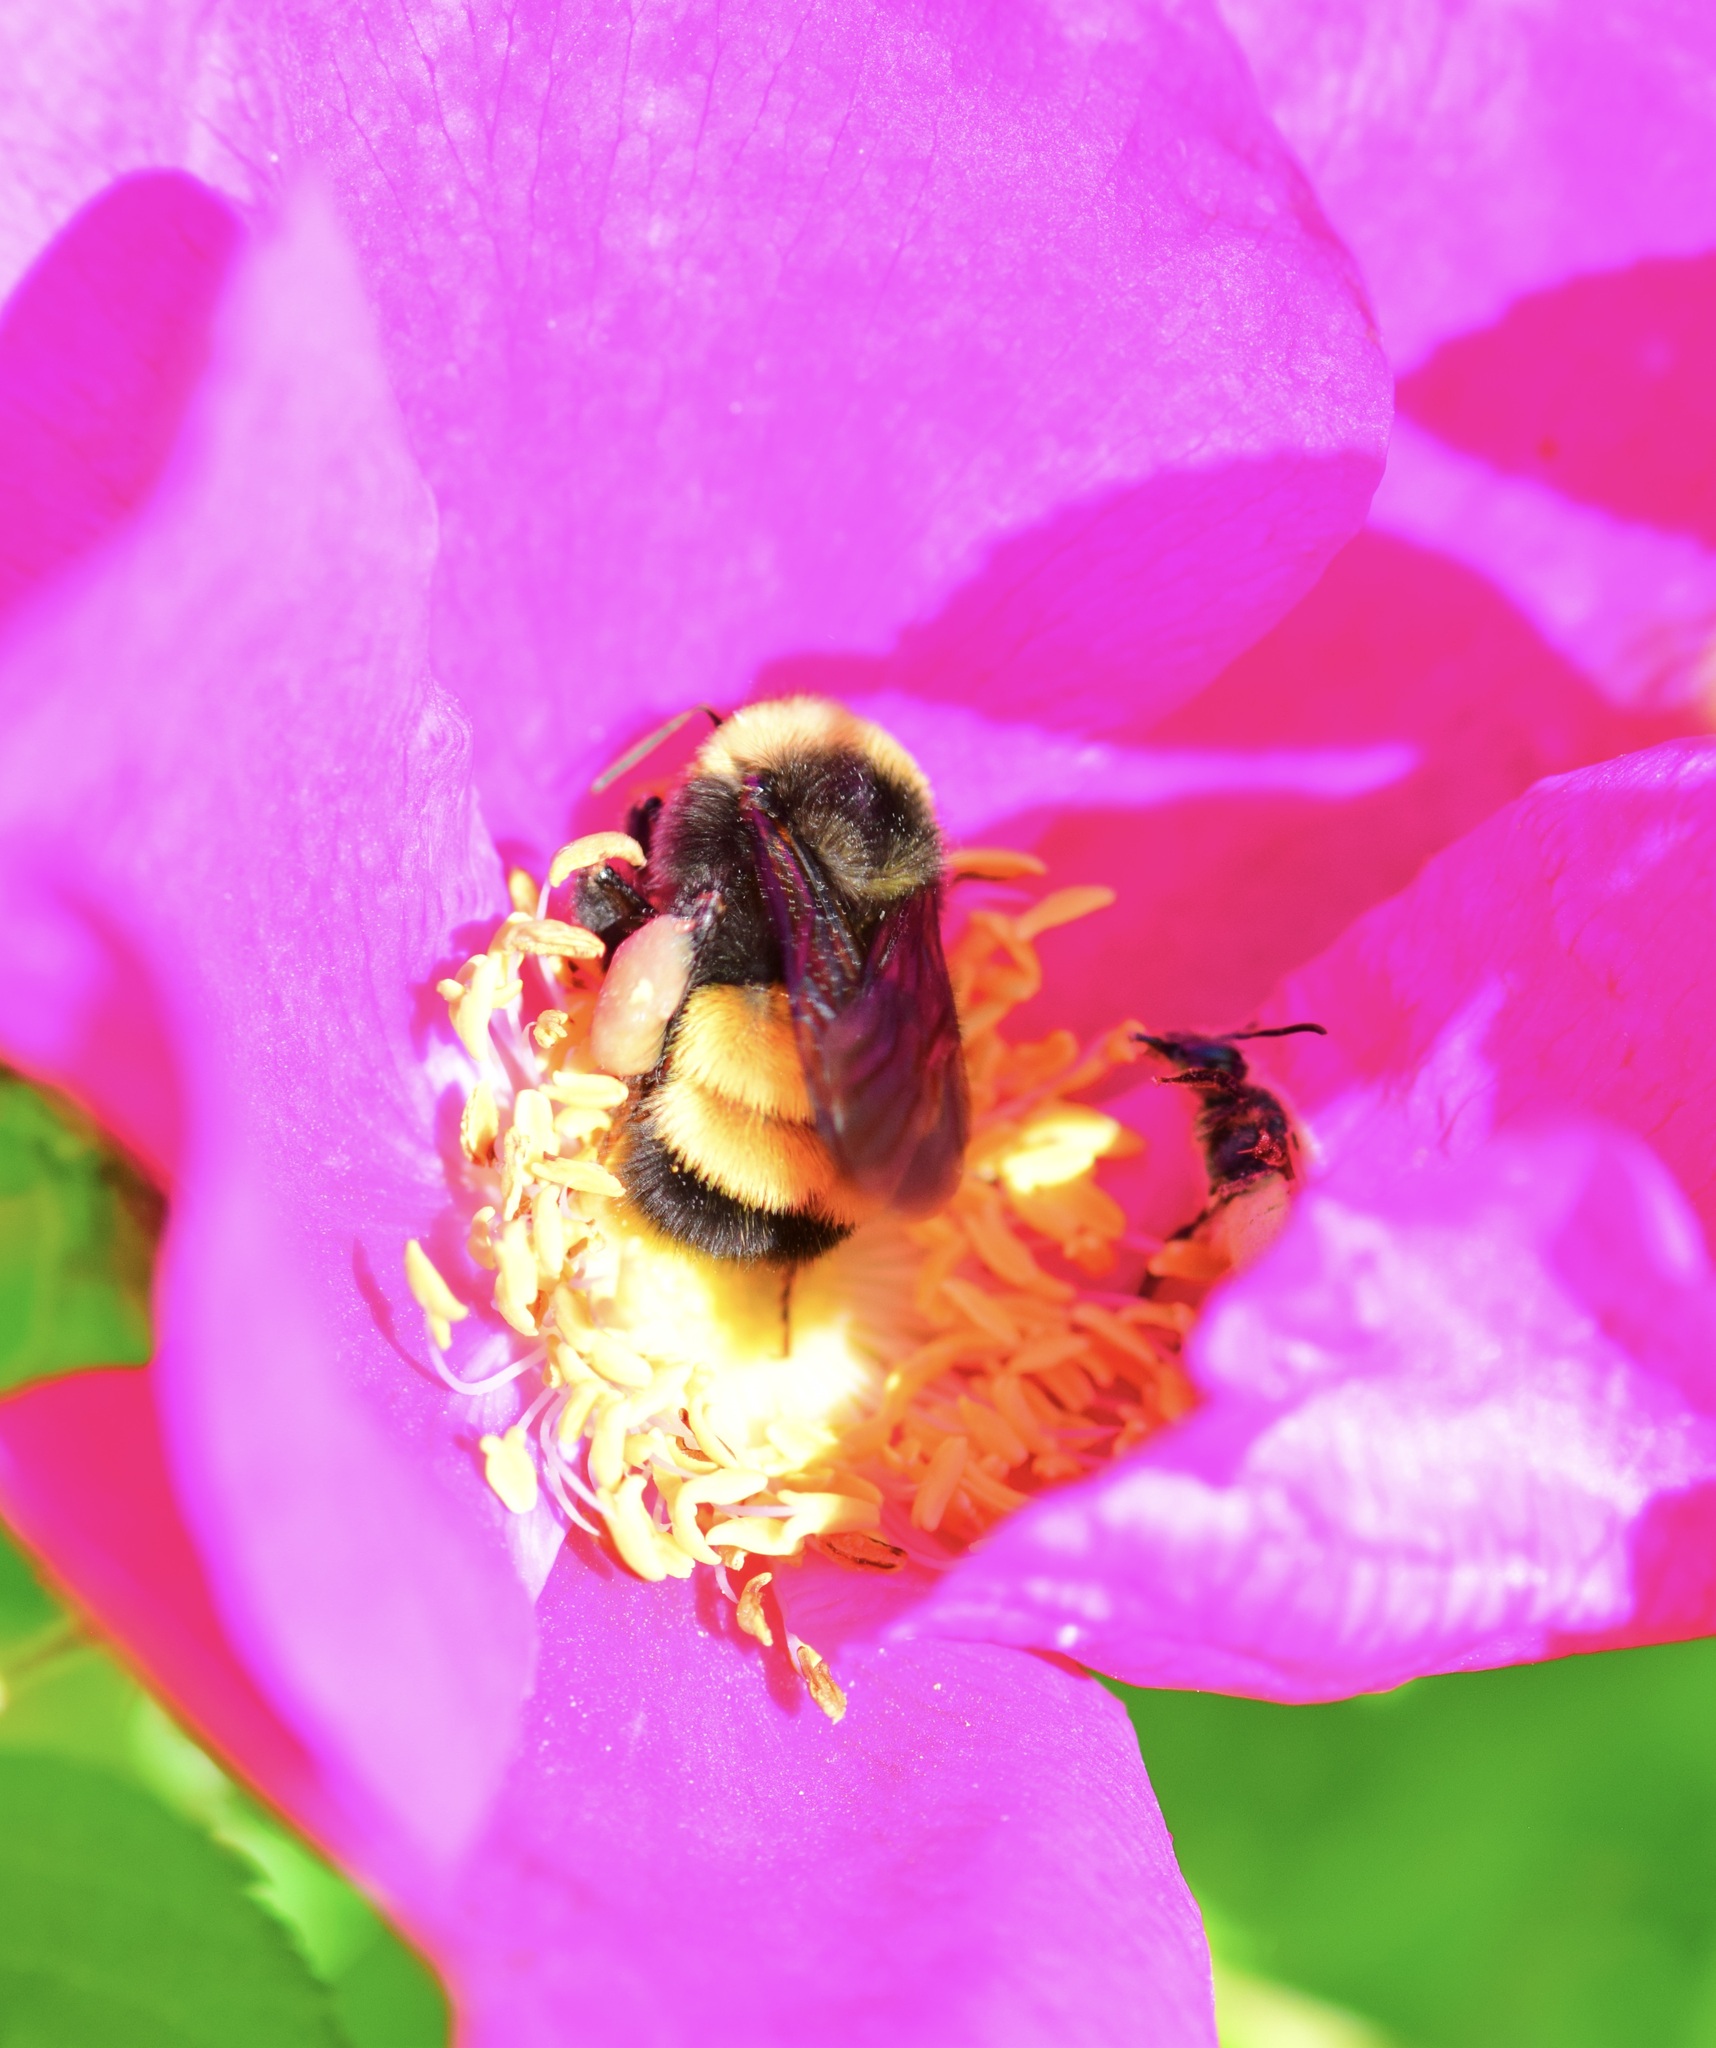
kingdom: Animalia
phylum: Arthropoda
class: Insecta
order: Hymenoptera
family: Apidae
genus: Bombus
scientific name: Bombus terricola
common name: Yellow-banded bumble bee
